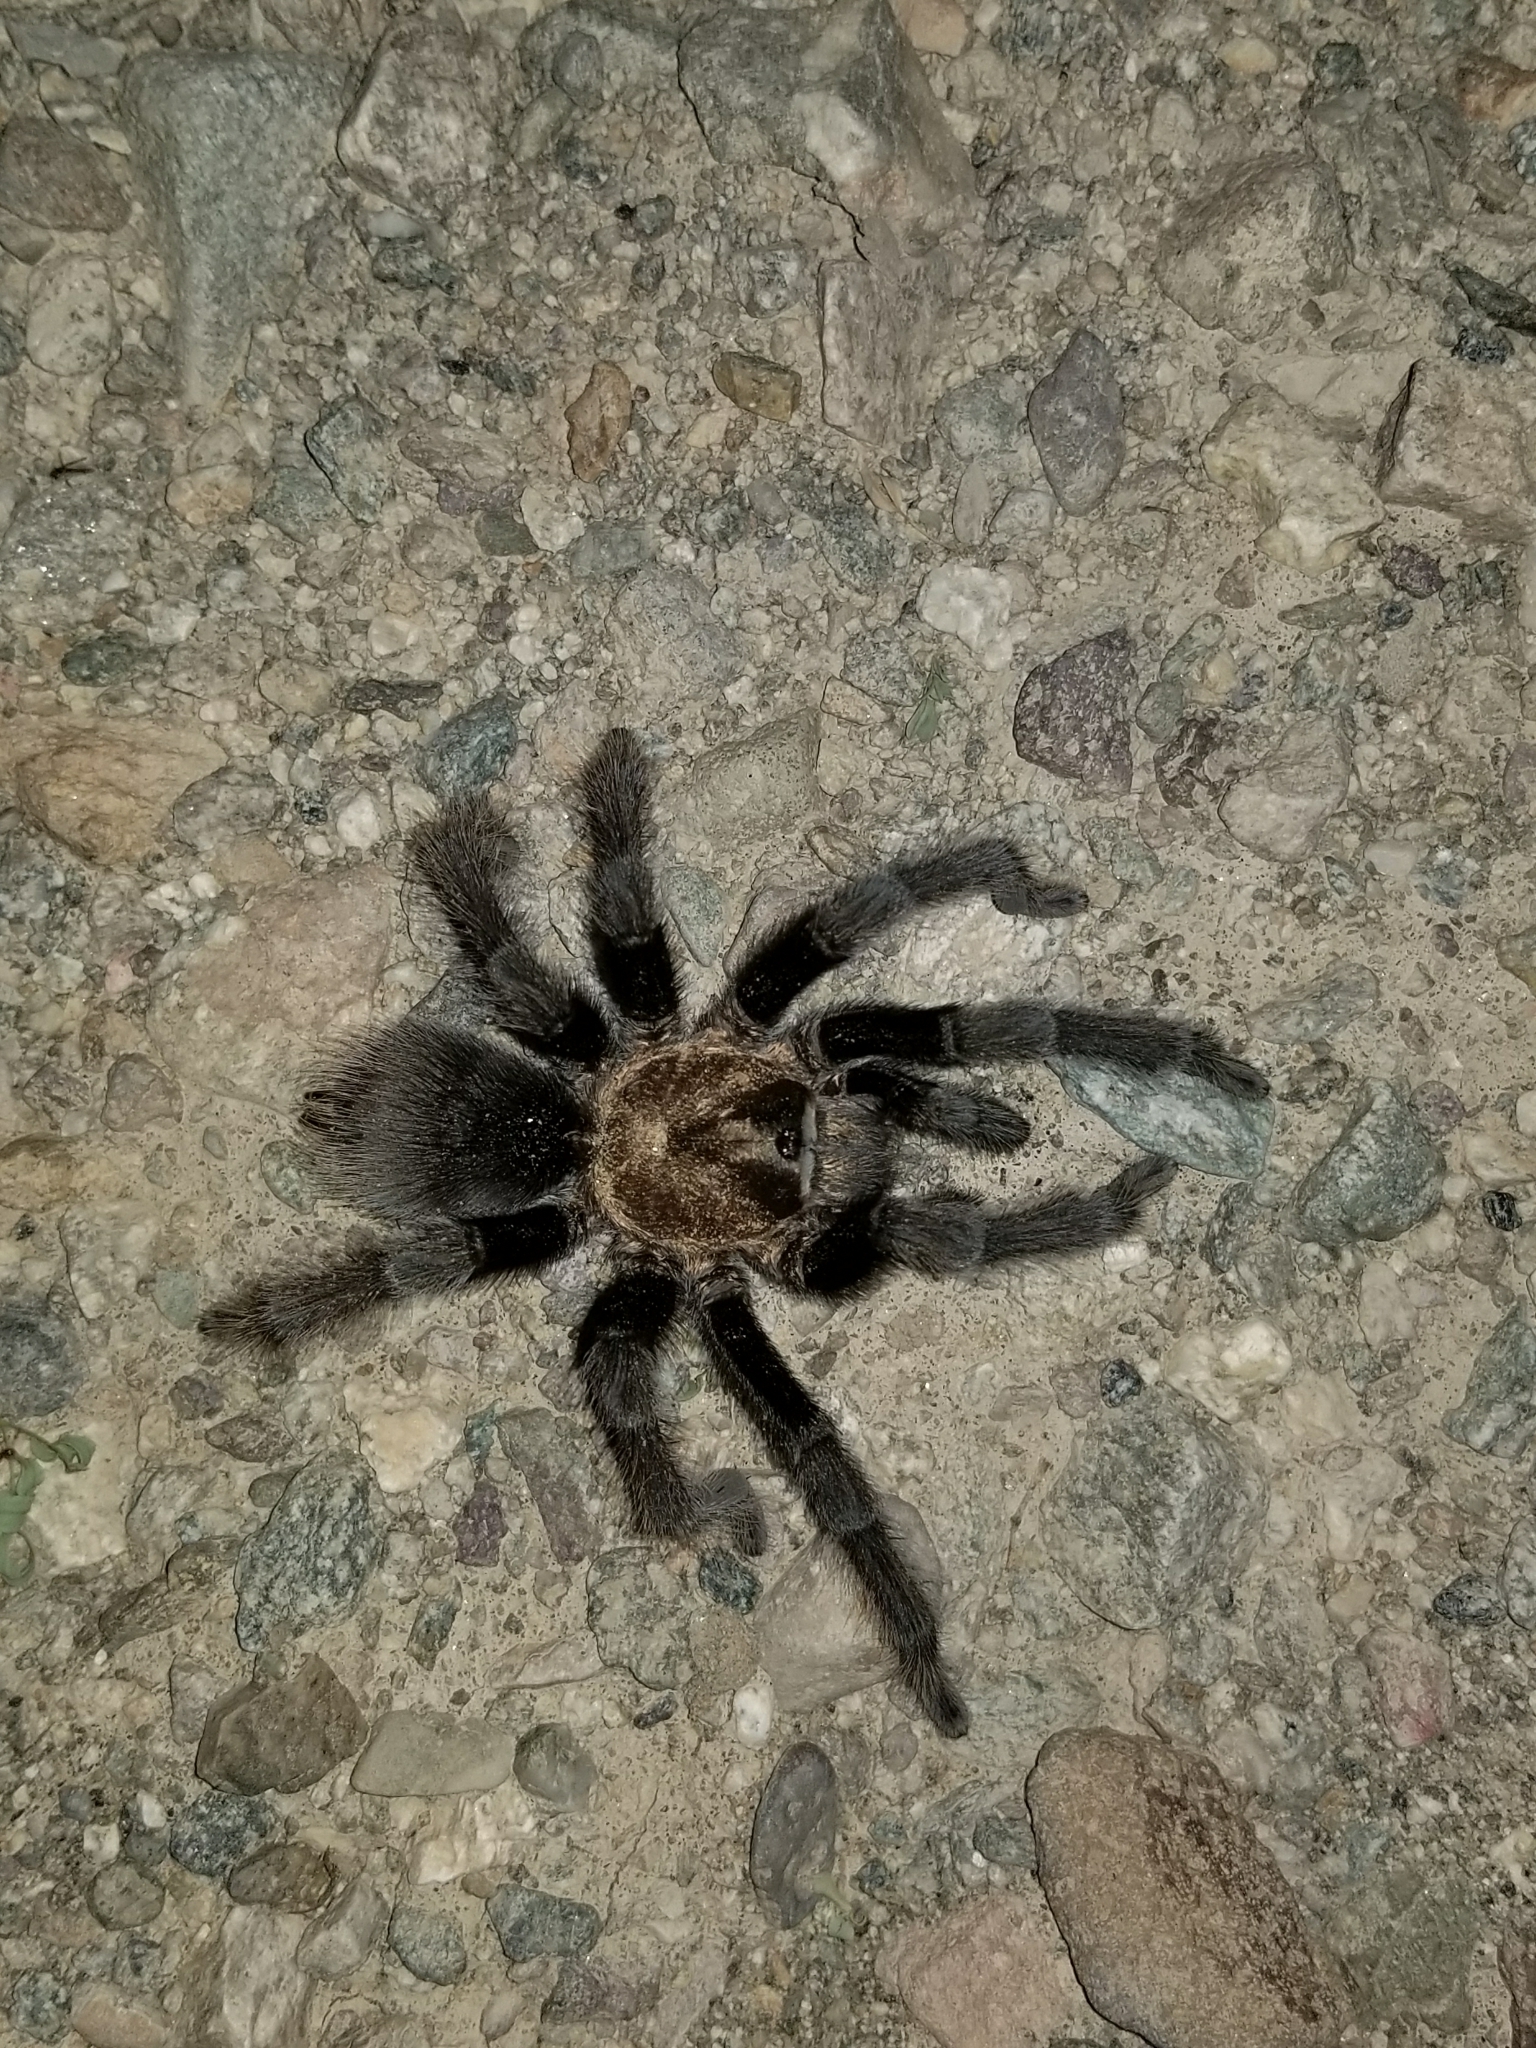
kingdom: Animalia
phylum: Arthropoda
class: Arachnida
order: Araneae
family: Theraphosidae
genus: Aphonopelma
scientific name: Aphonopelma eutylenum
